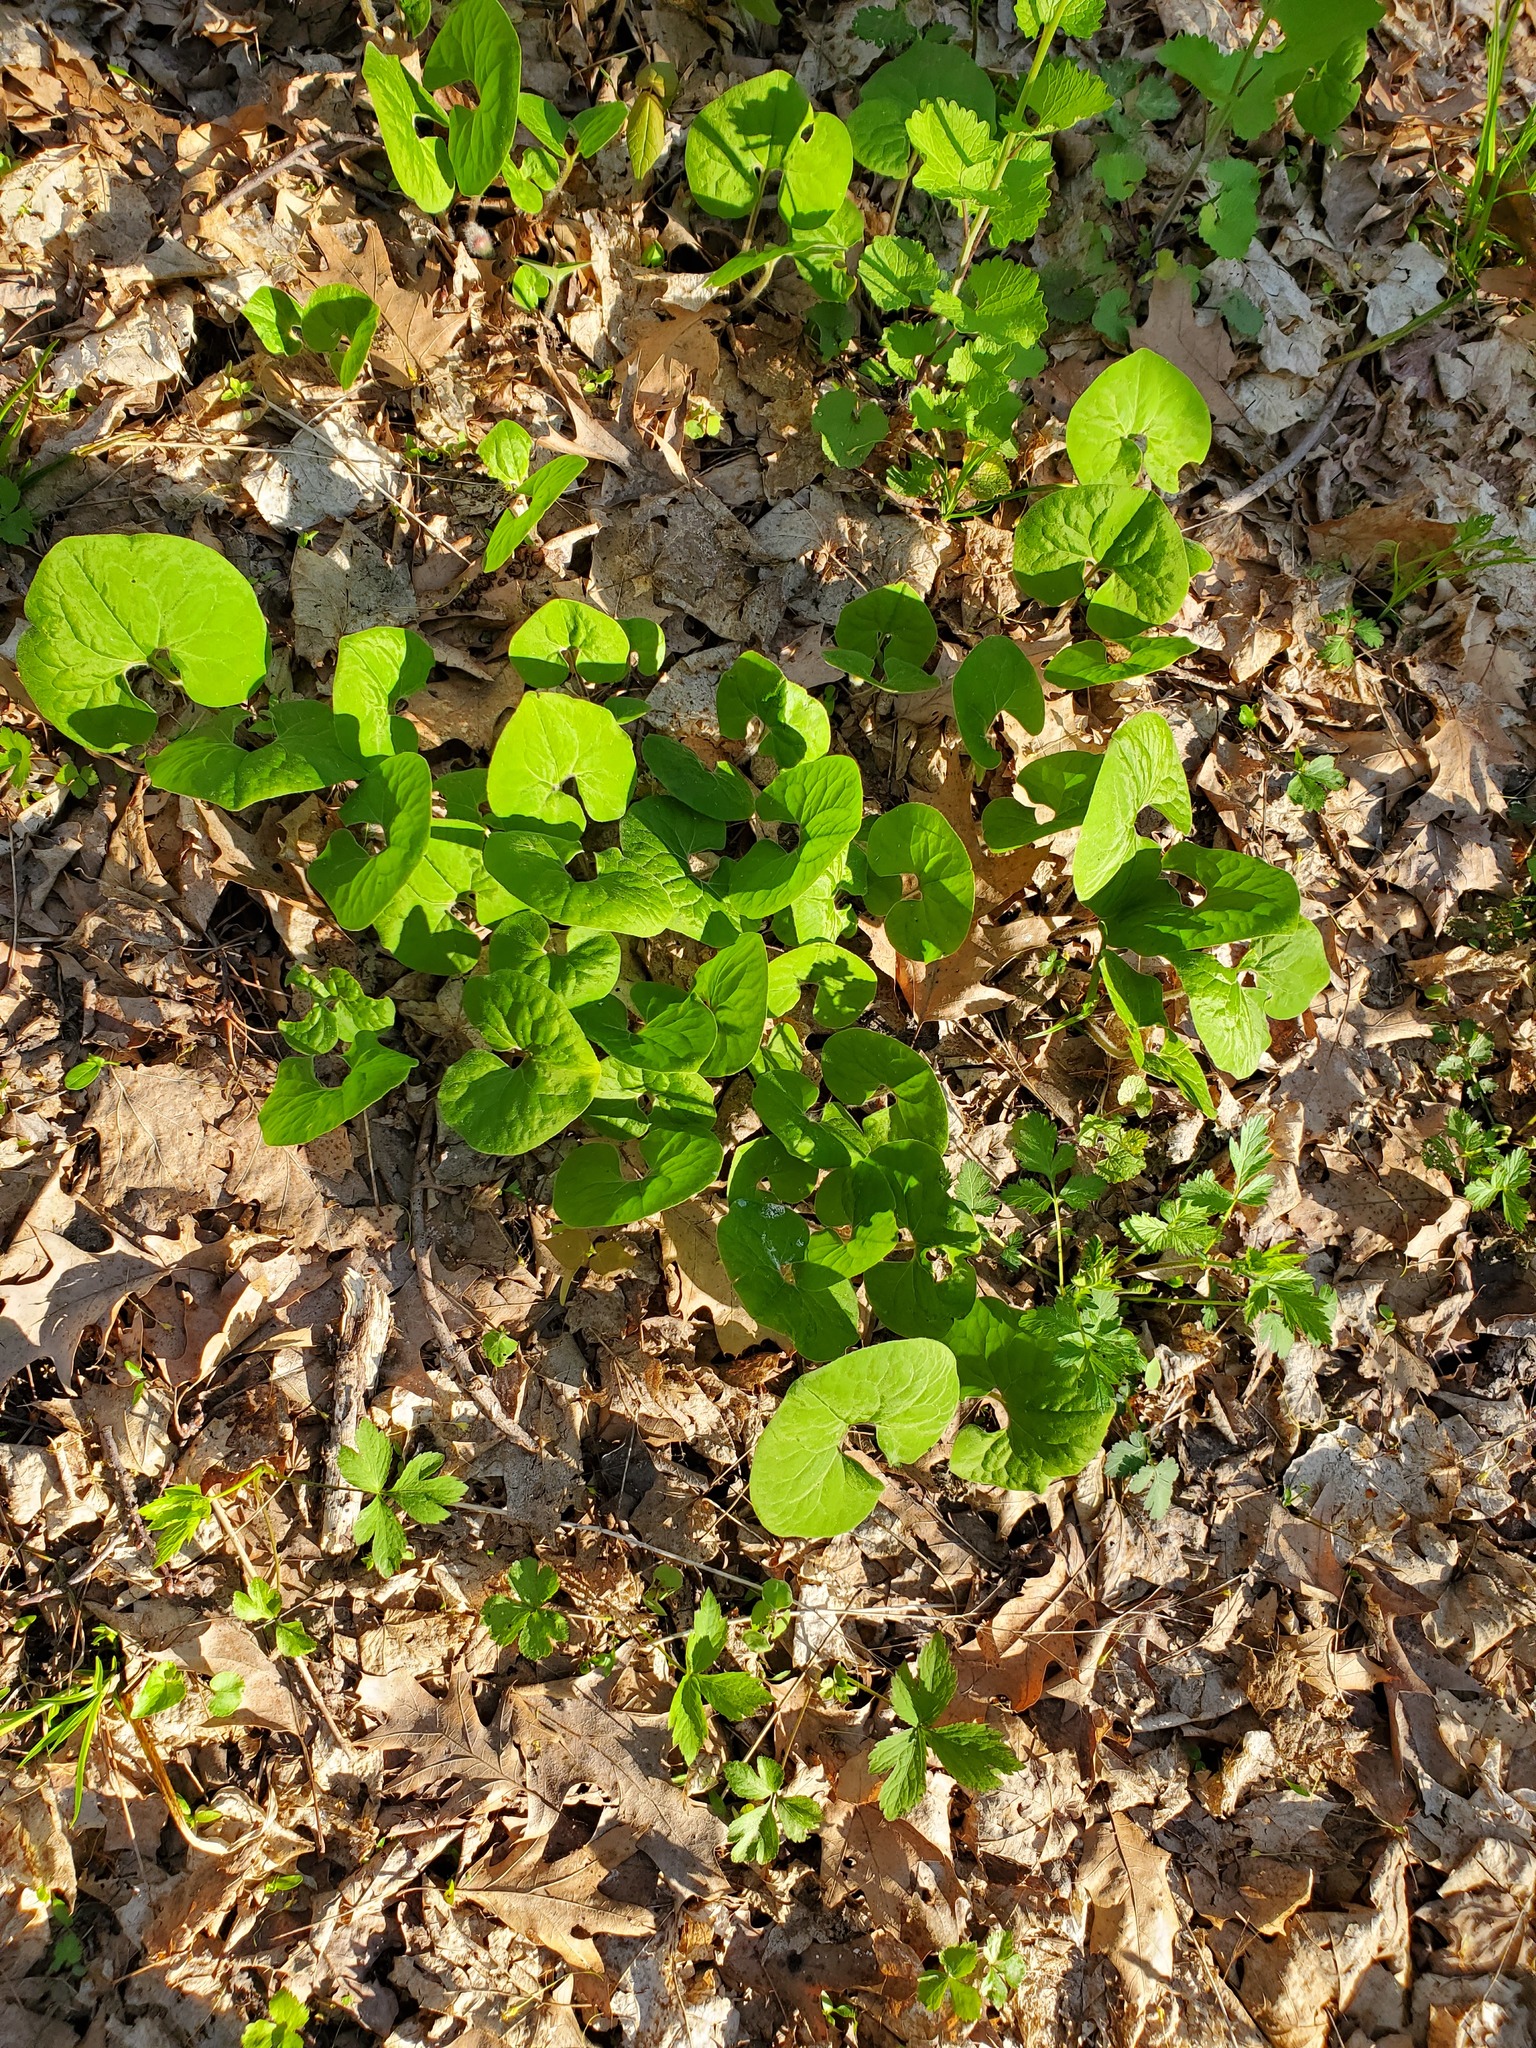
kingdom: Plantae
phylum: Tracheophyta
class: Magnoliopsida
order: Piperales
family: Aristolochiaceae
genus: Asarum
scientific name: Asarum canadense
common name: Wild ginger
